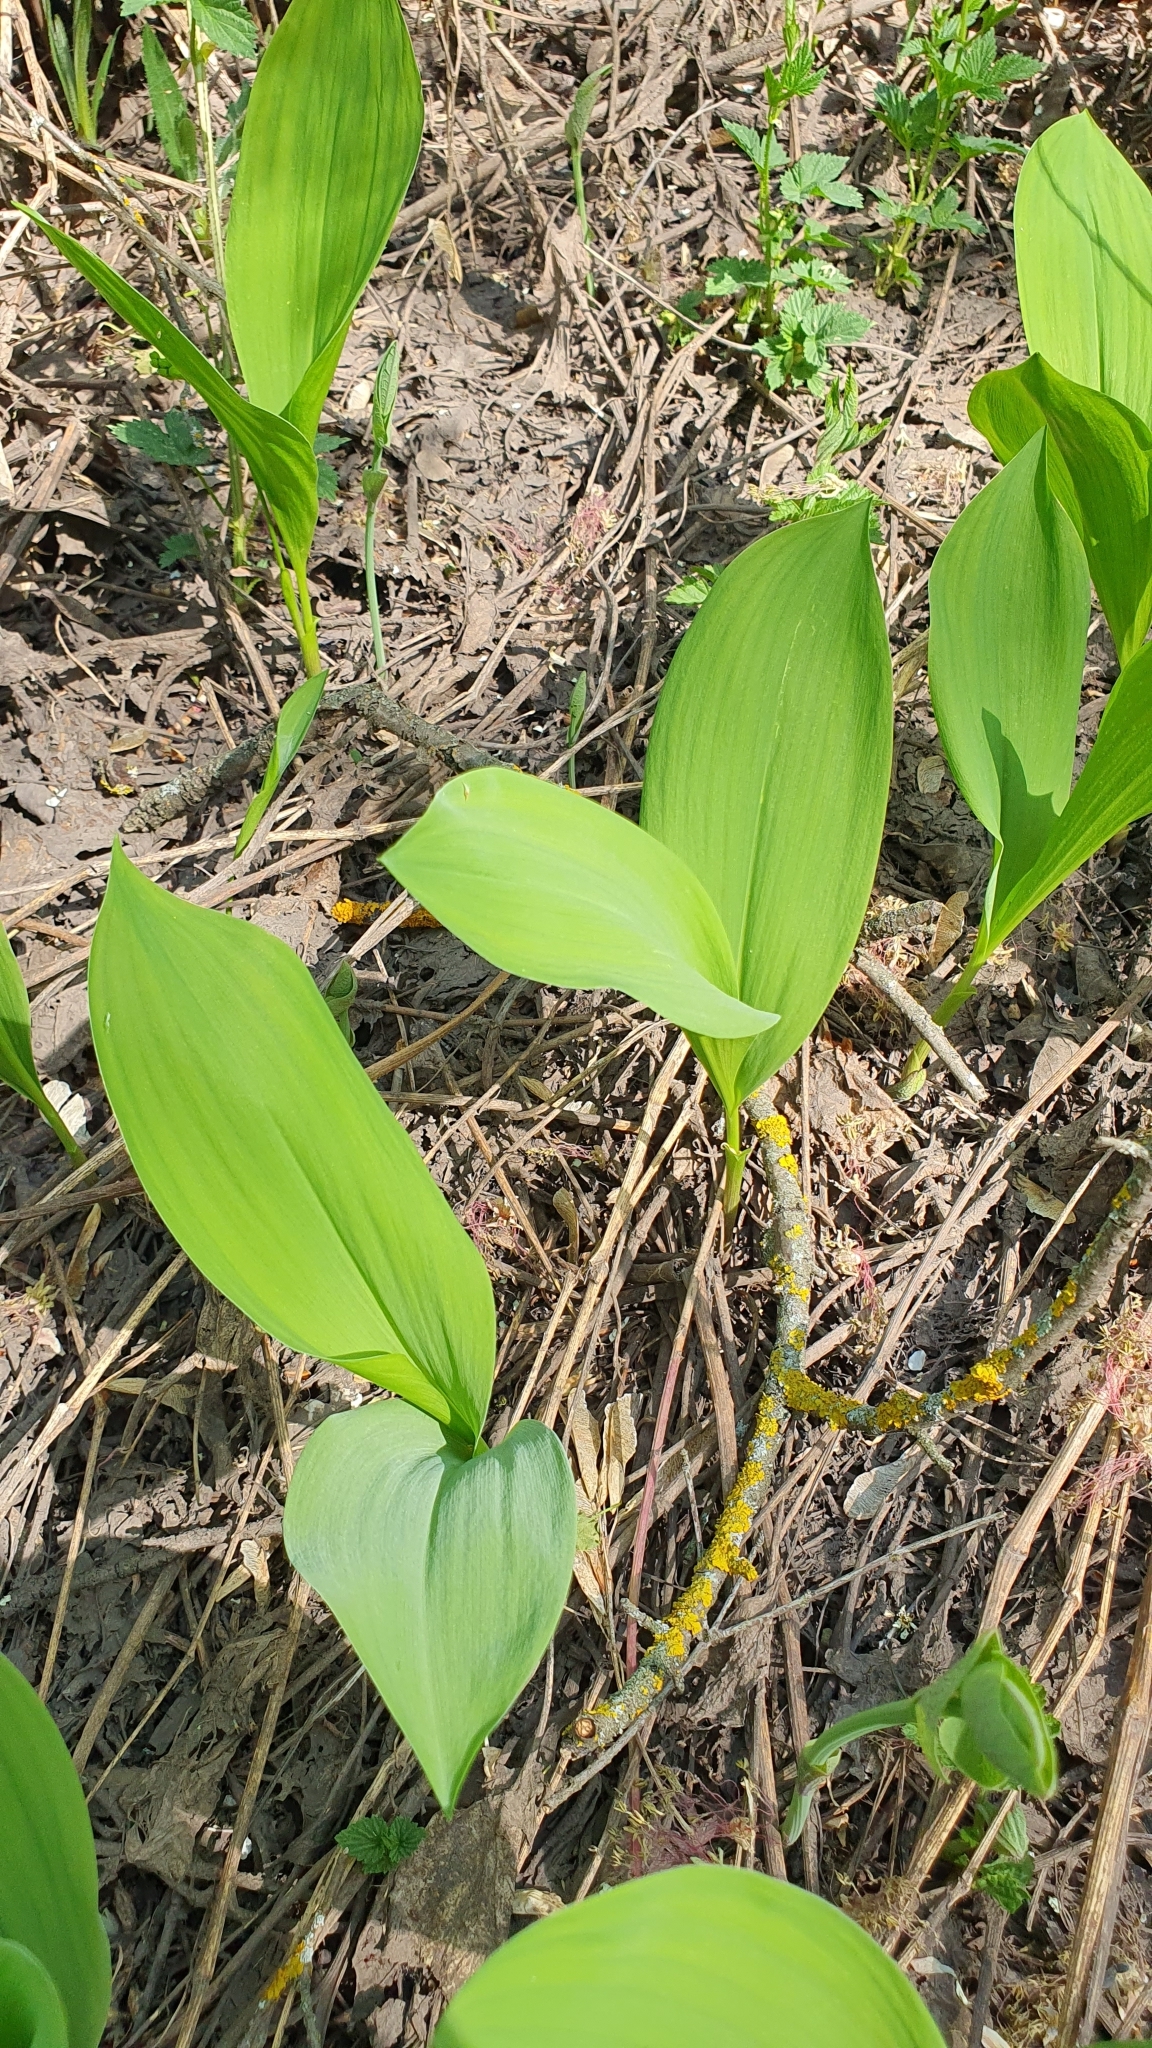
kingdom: Plantae
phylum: Tracheophyta
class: Liliopsida
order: Asparagales
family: Asparagaceae
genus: Convallaria
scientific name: Convallaria majalis
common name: Lily-of-the-valley
